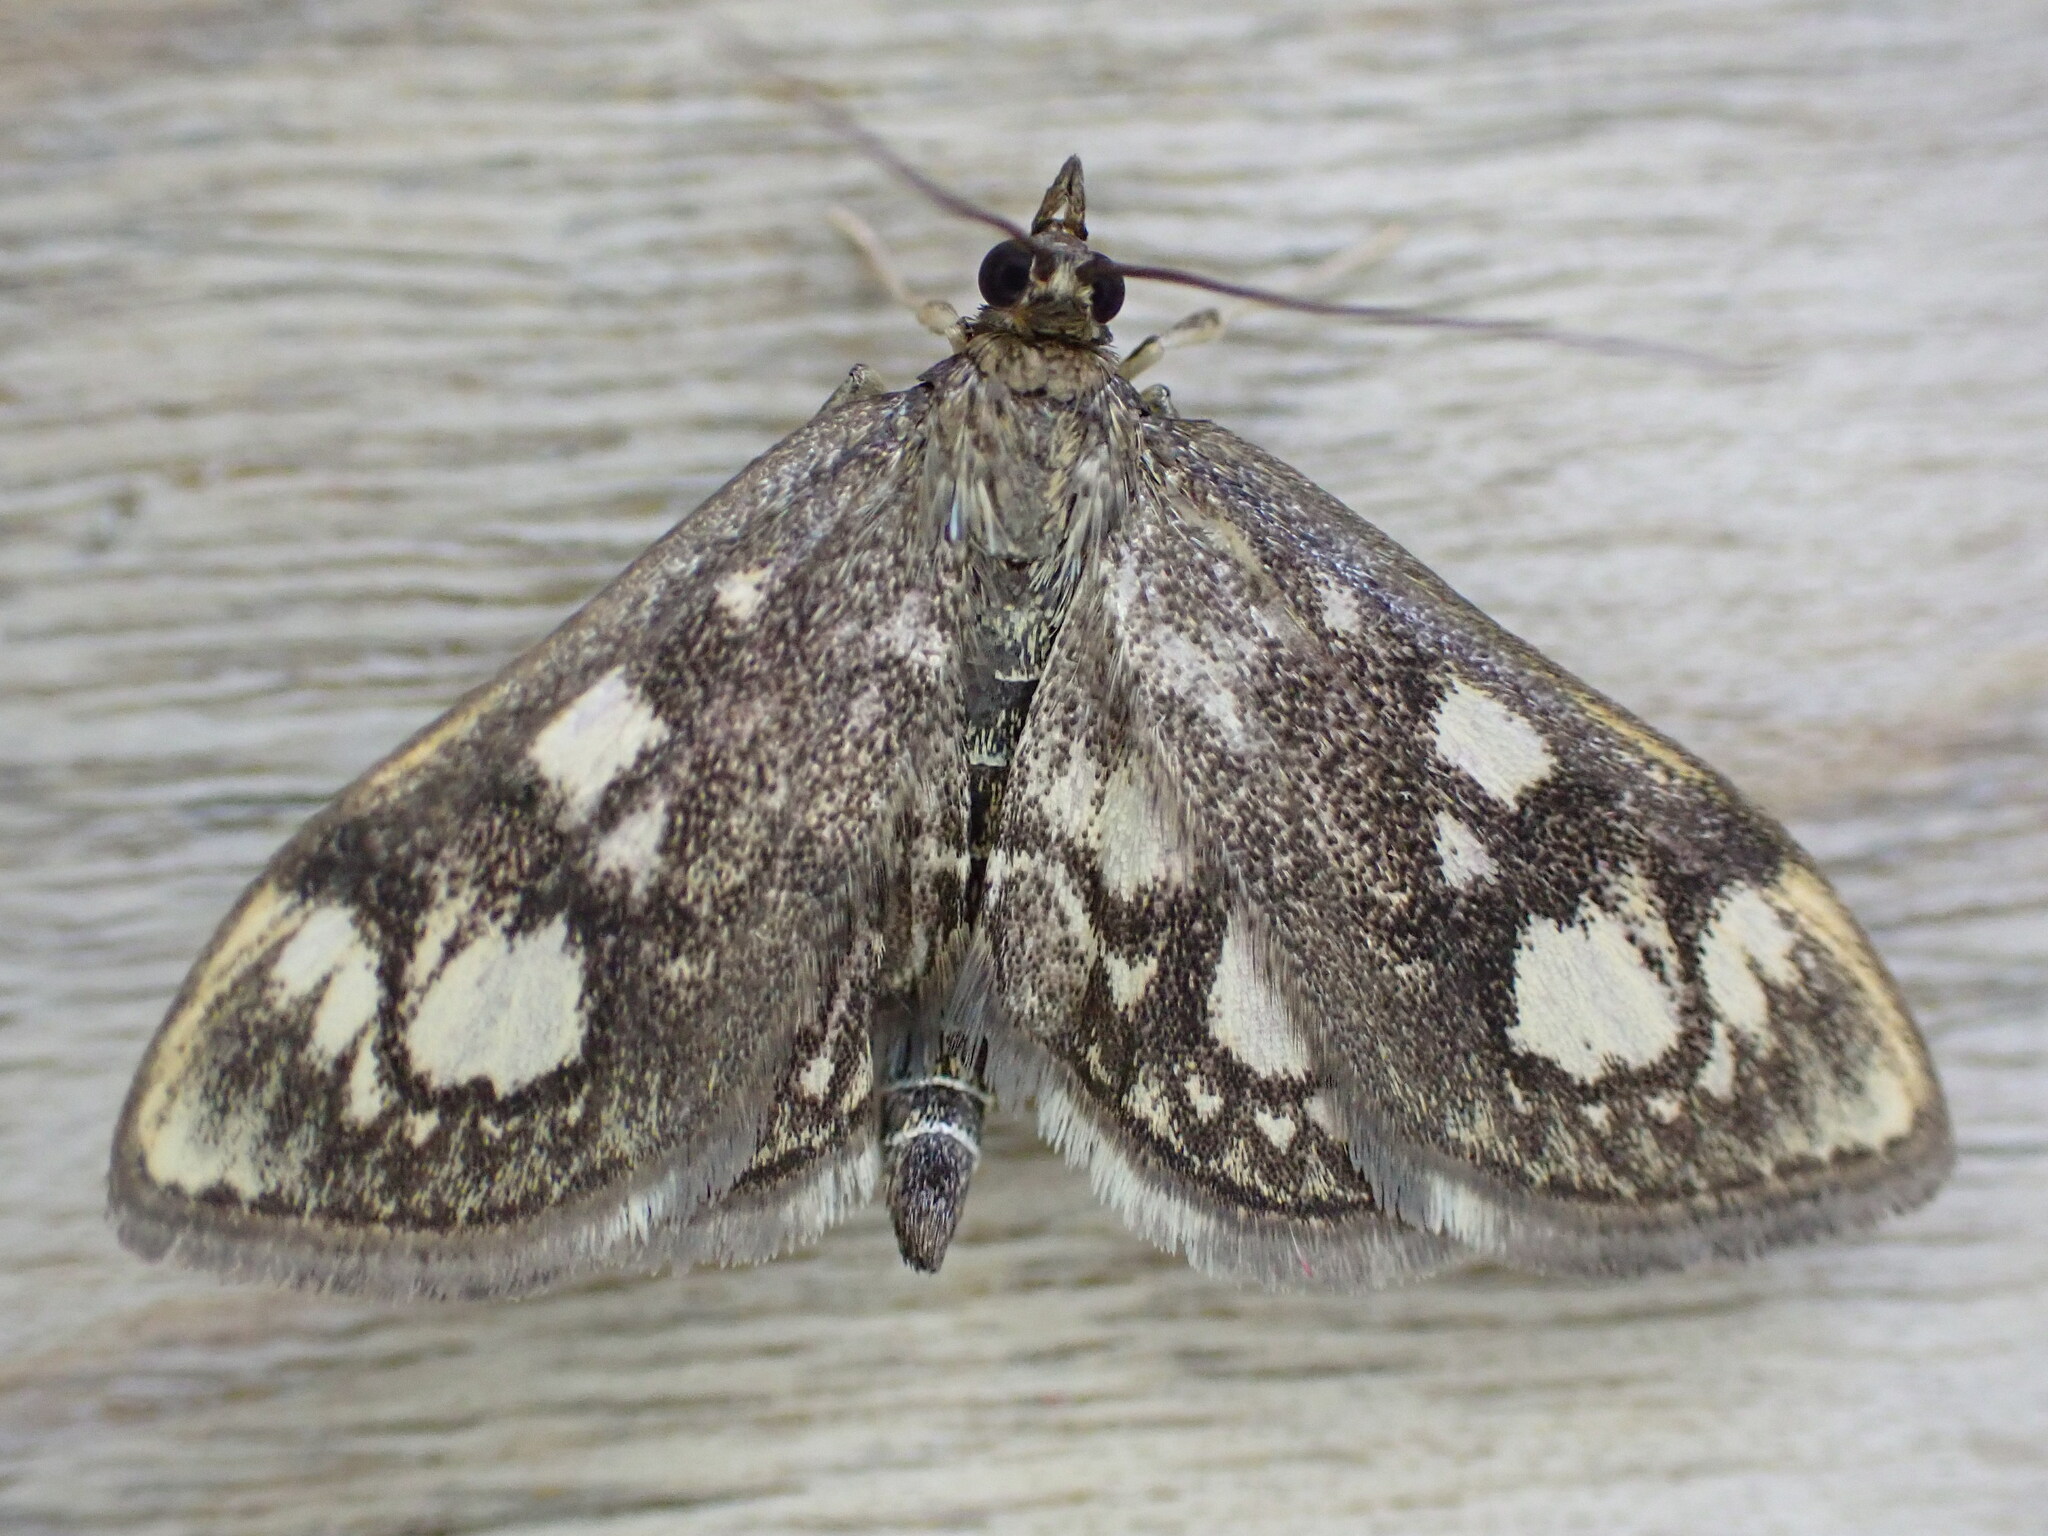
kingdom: Animalia
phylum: Arthropoda
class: Insecta
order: Lepidoptera
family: Crambidae
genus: Anania
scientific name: Anania coronata
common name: Elder pearl
